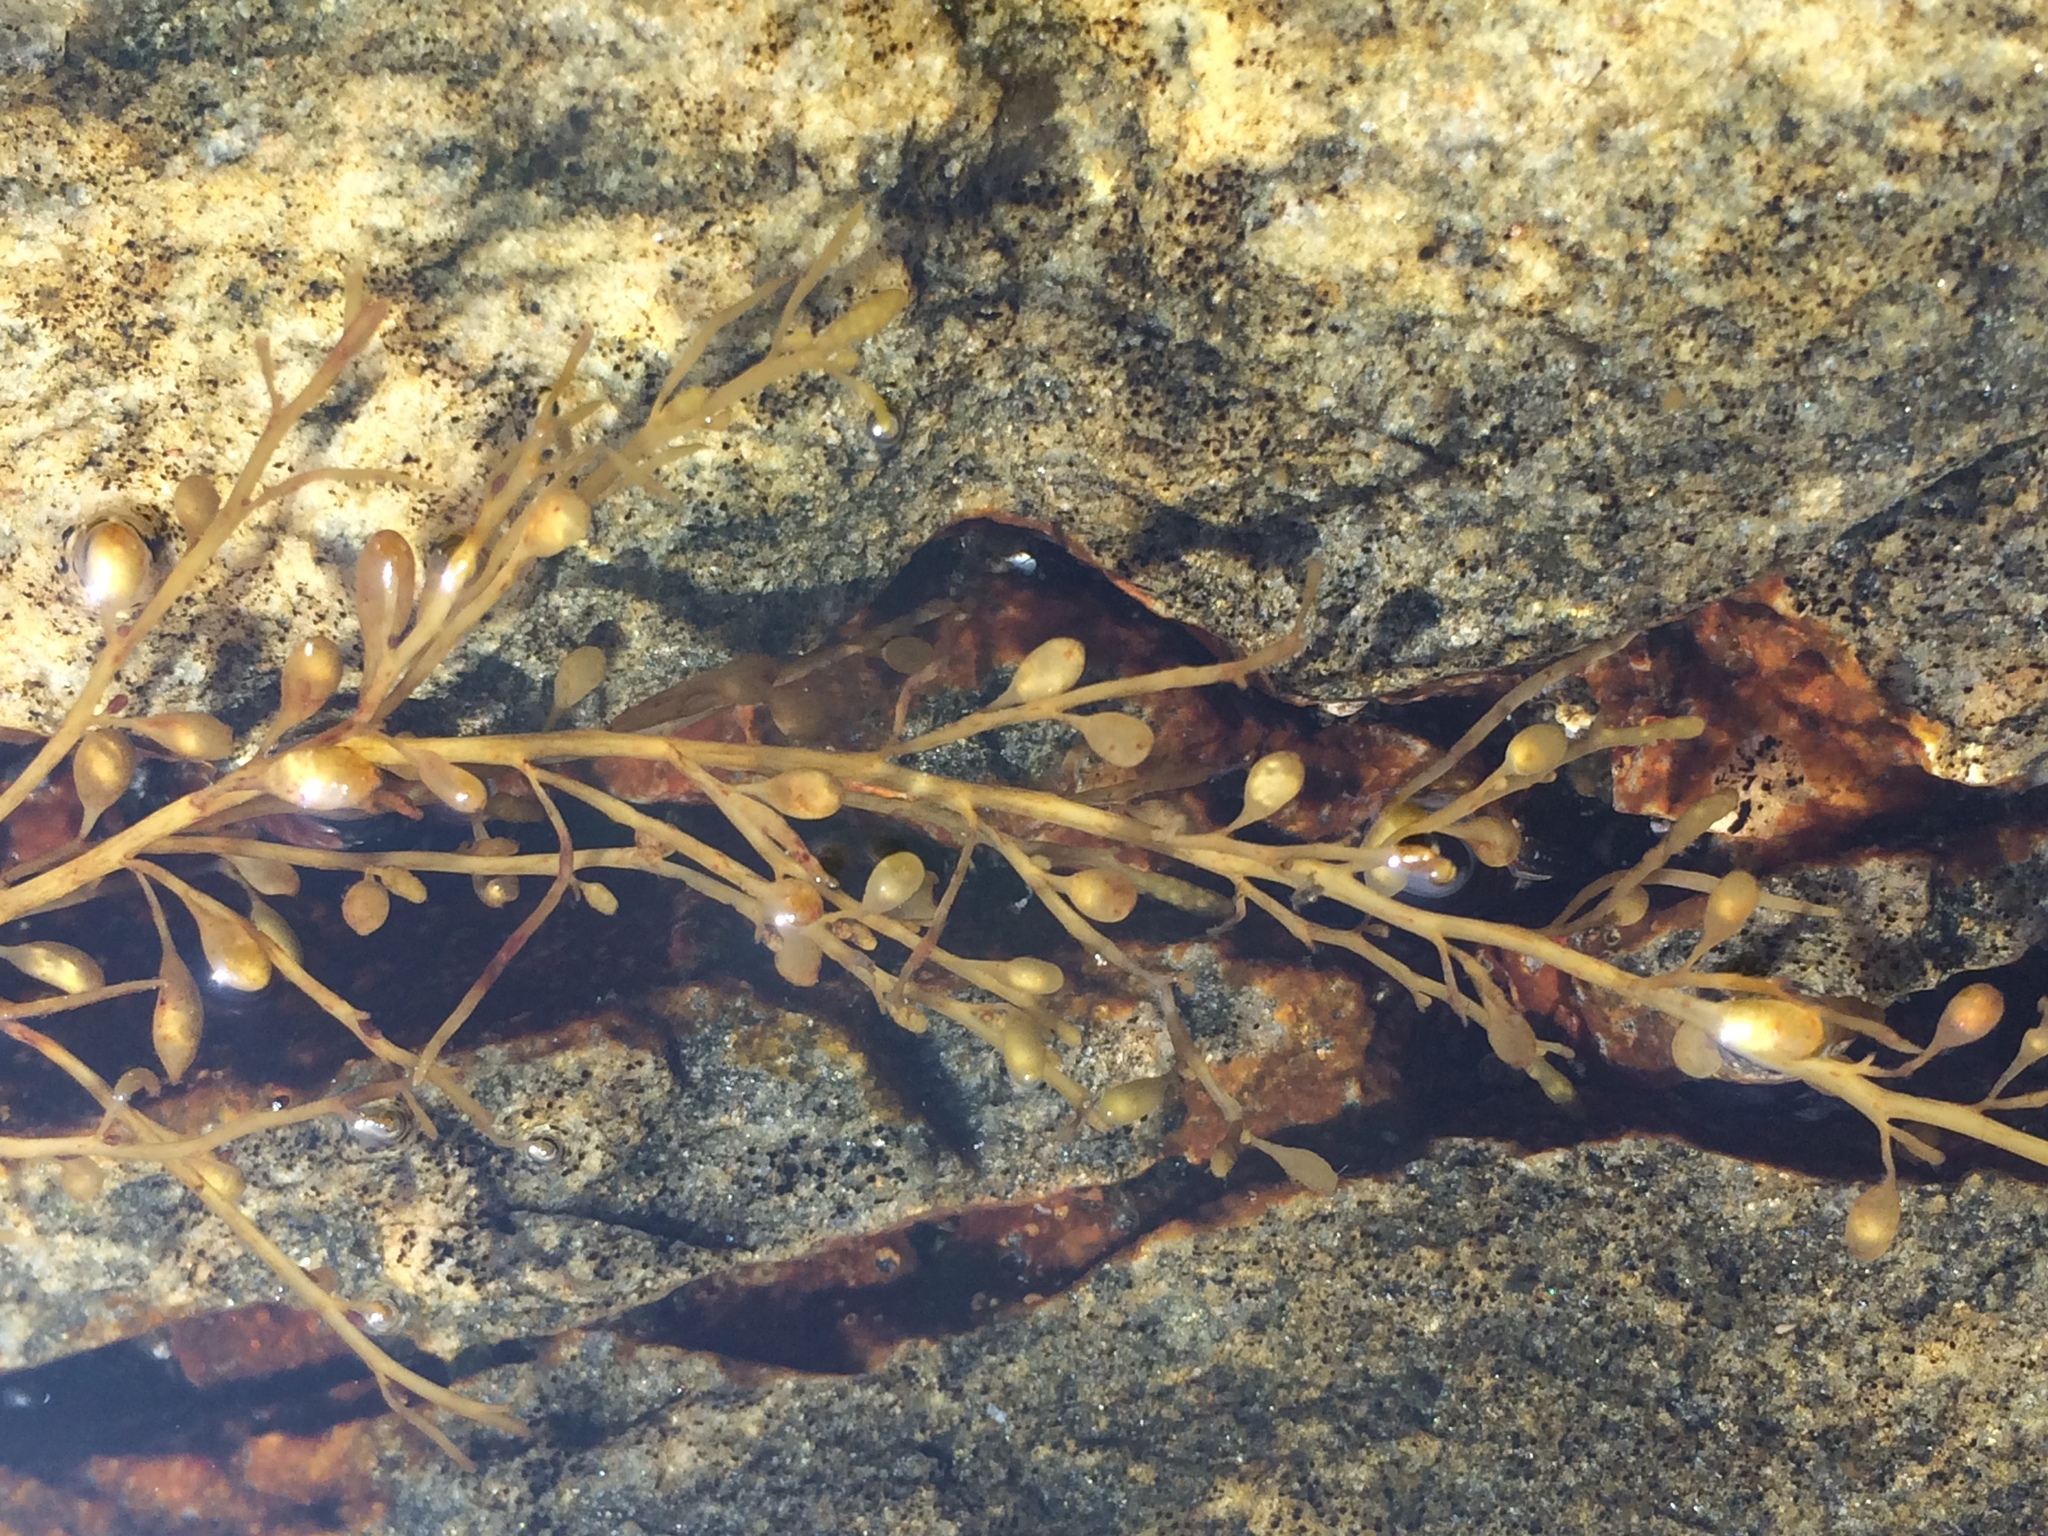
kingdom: Chromista
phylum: Ochrophyta
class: Phaeophyceae
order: Fucales
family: Sargassaceae
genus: Sargassum
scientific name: Sargassum muticum
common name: Japweed
